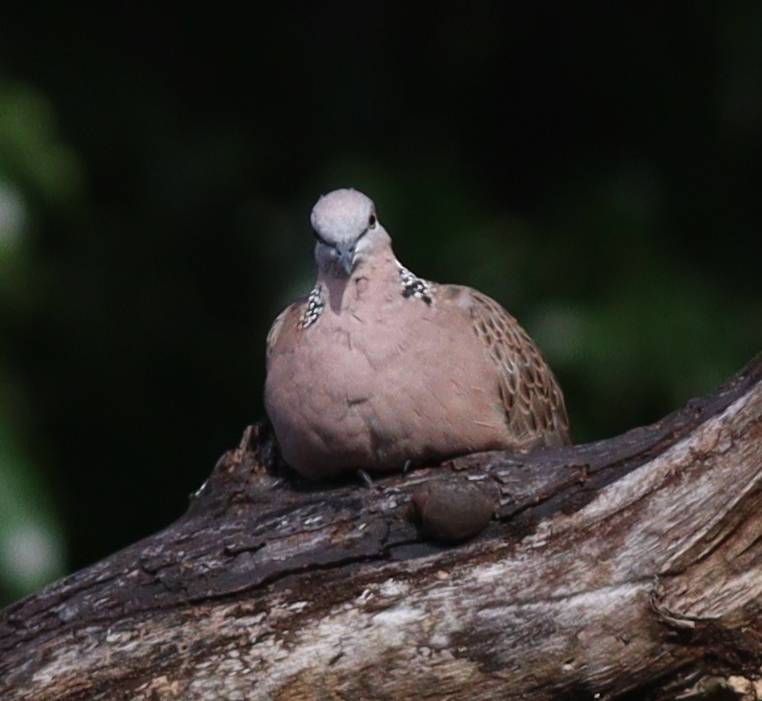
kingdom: Animalia
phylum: Chordata
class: Aves
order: Columbiformes
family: Columbidae
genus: Spilopelia
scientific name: Spilopelia chinensis
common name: Spotted dove
